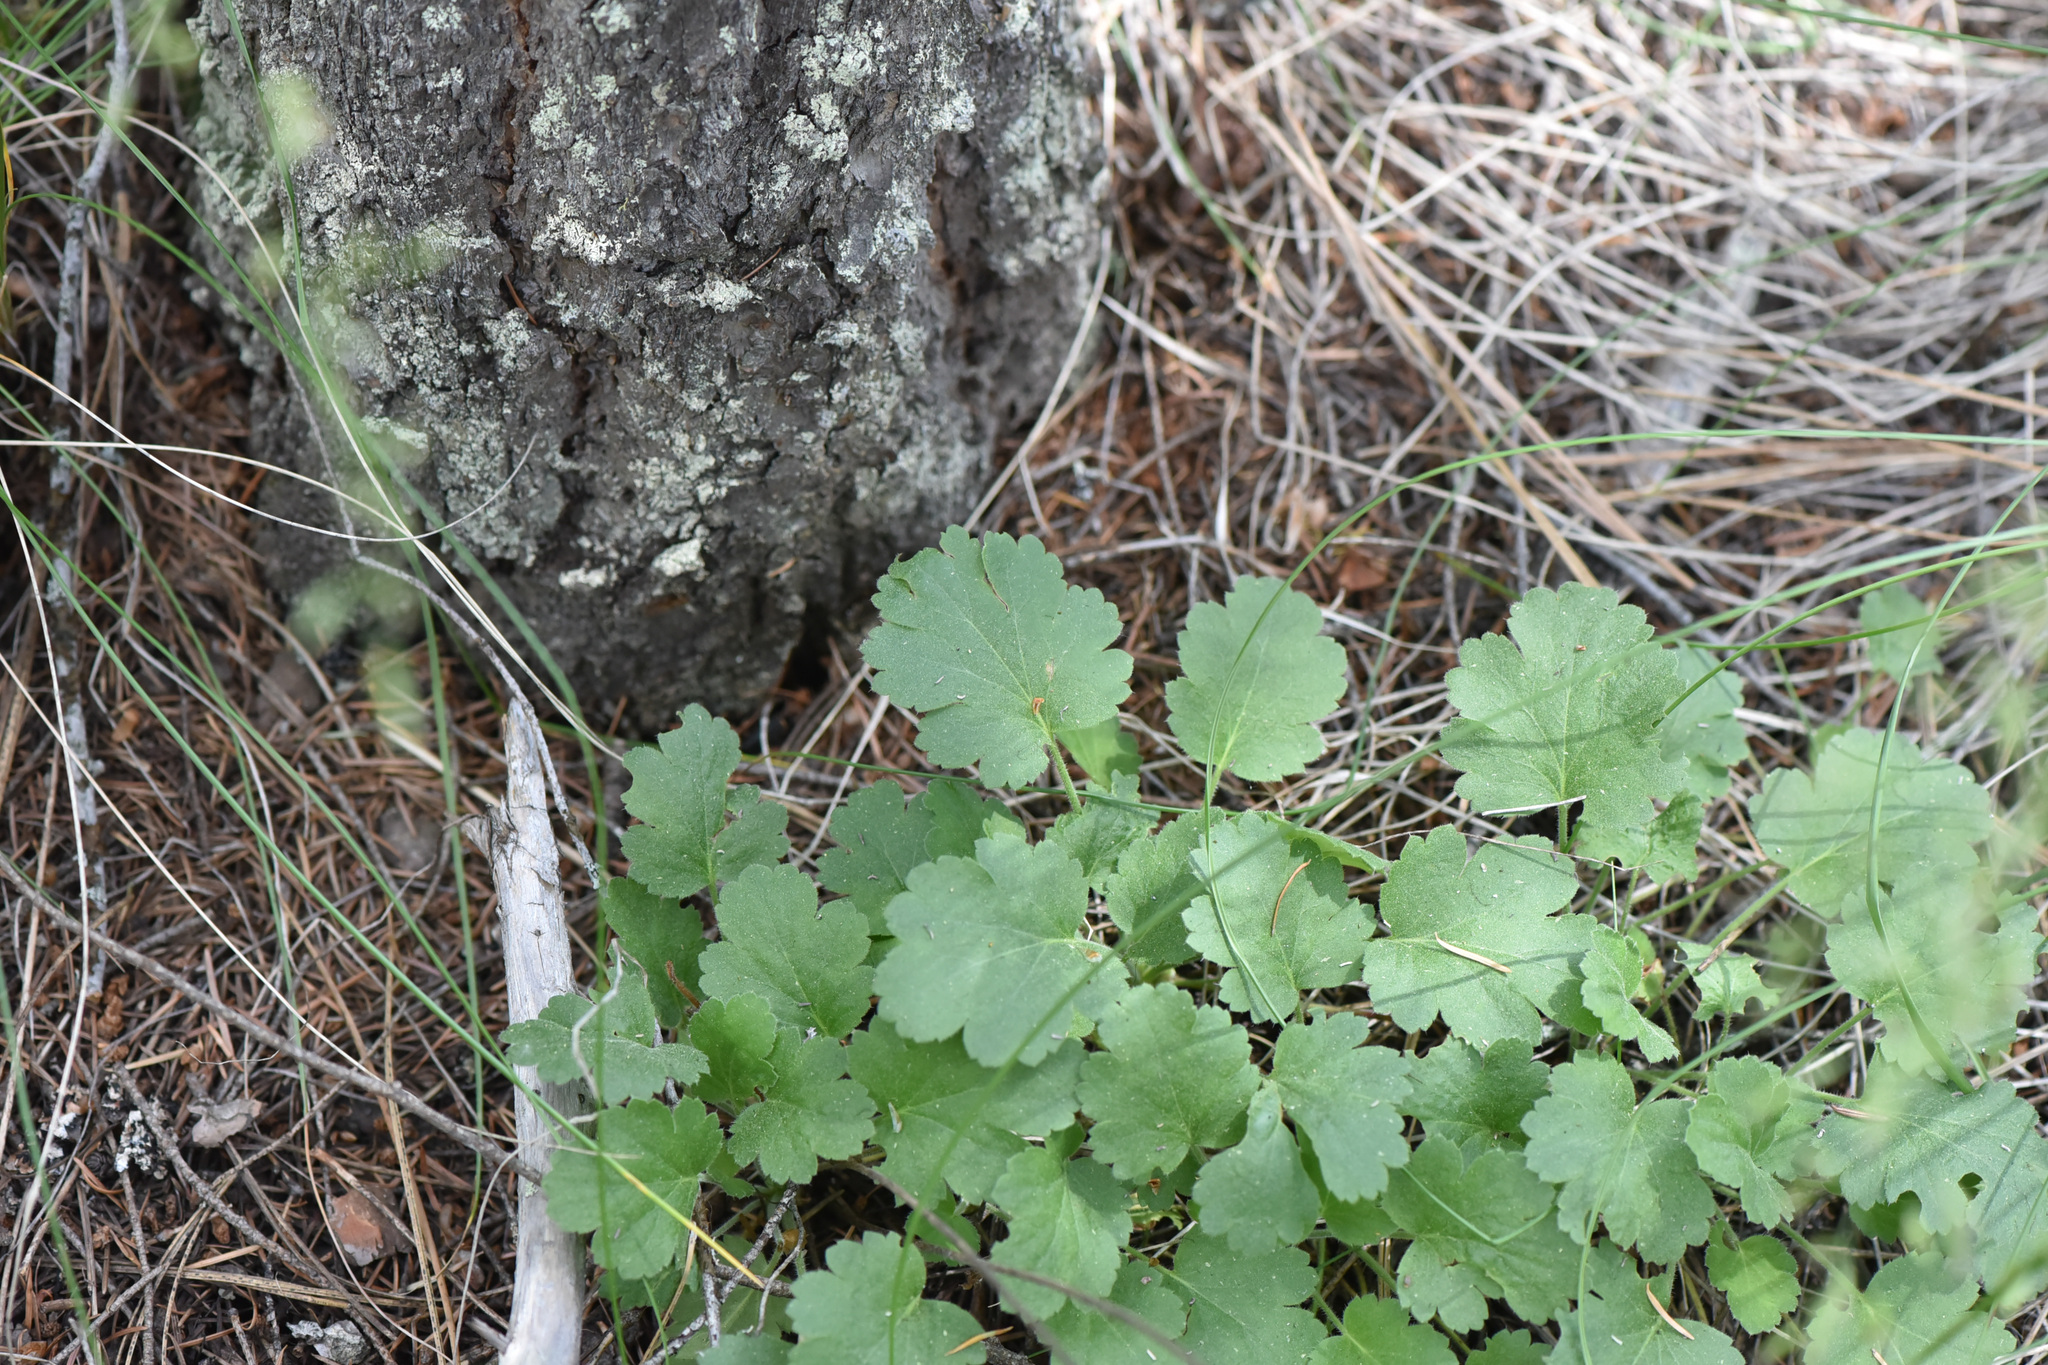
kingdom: Plantae
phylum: Tracheophyta
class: Magnoliopsida
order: Saxifragales
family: Saxifragaceae
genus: Heuchera
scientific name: Heuchera cylindrica
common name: Mat alumroot
